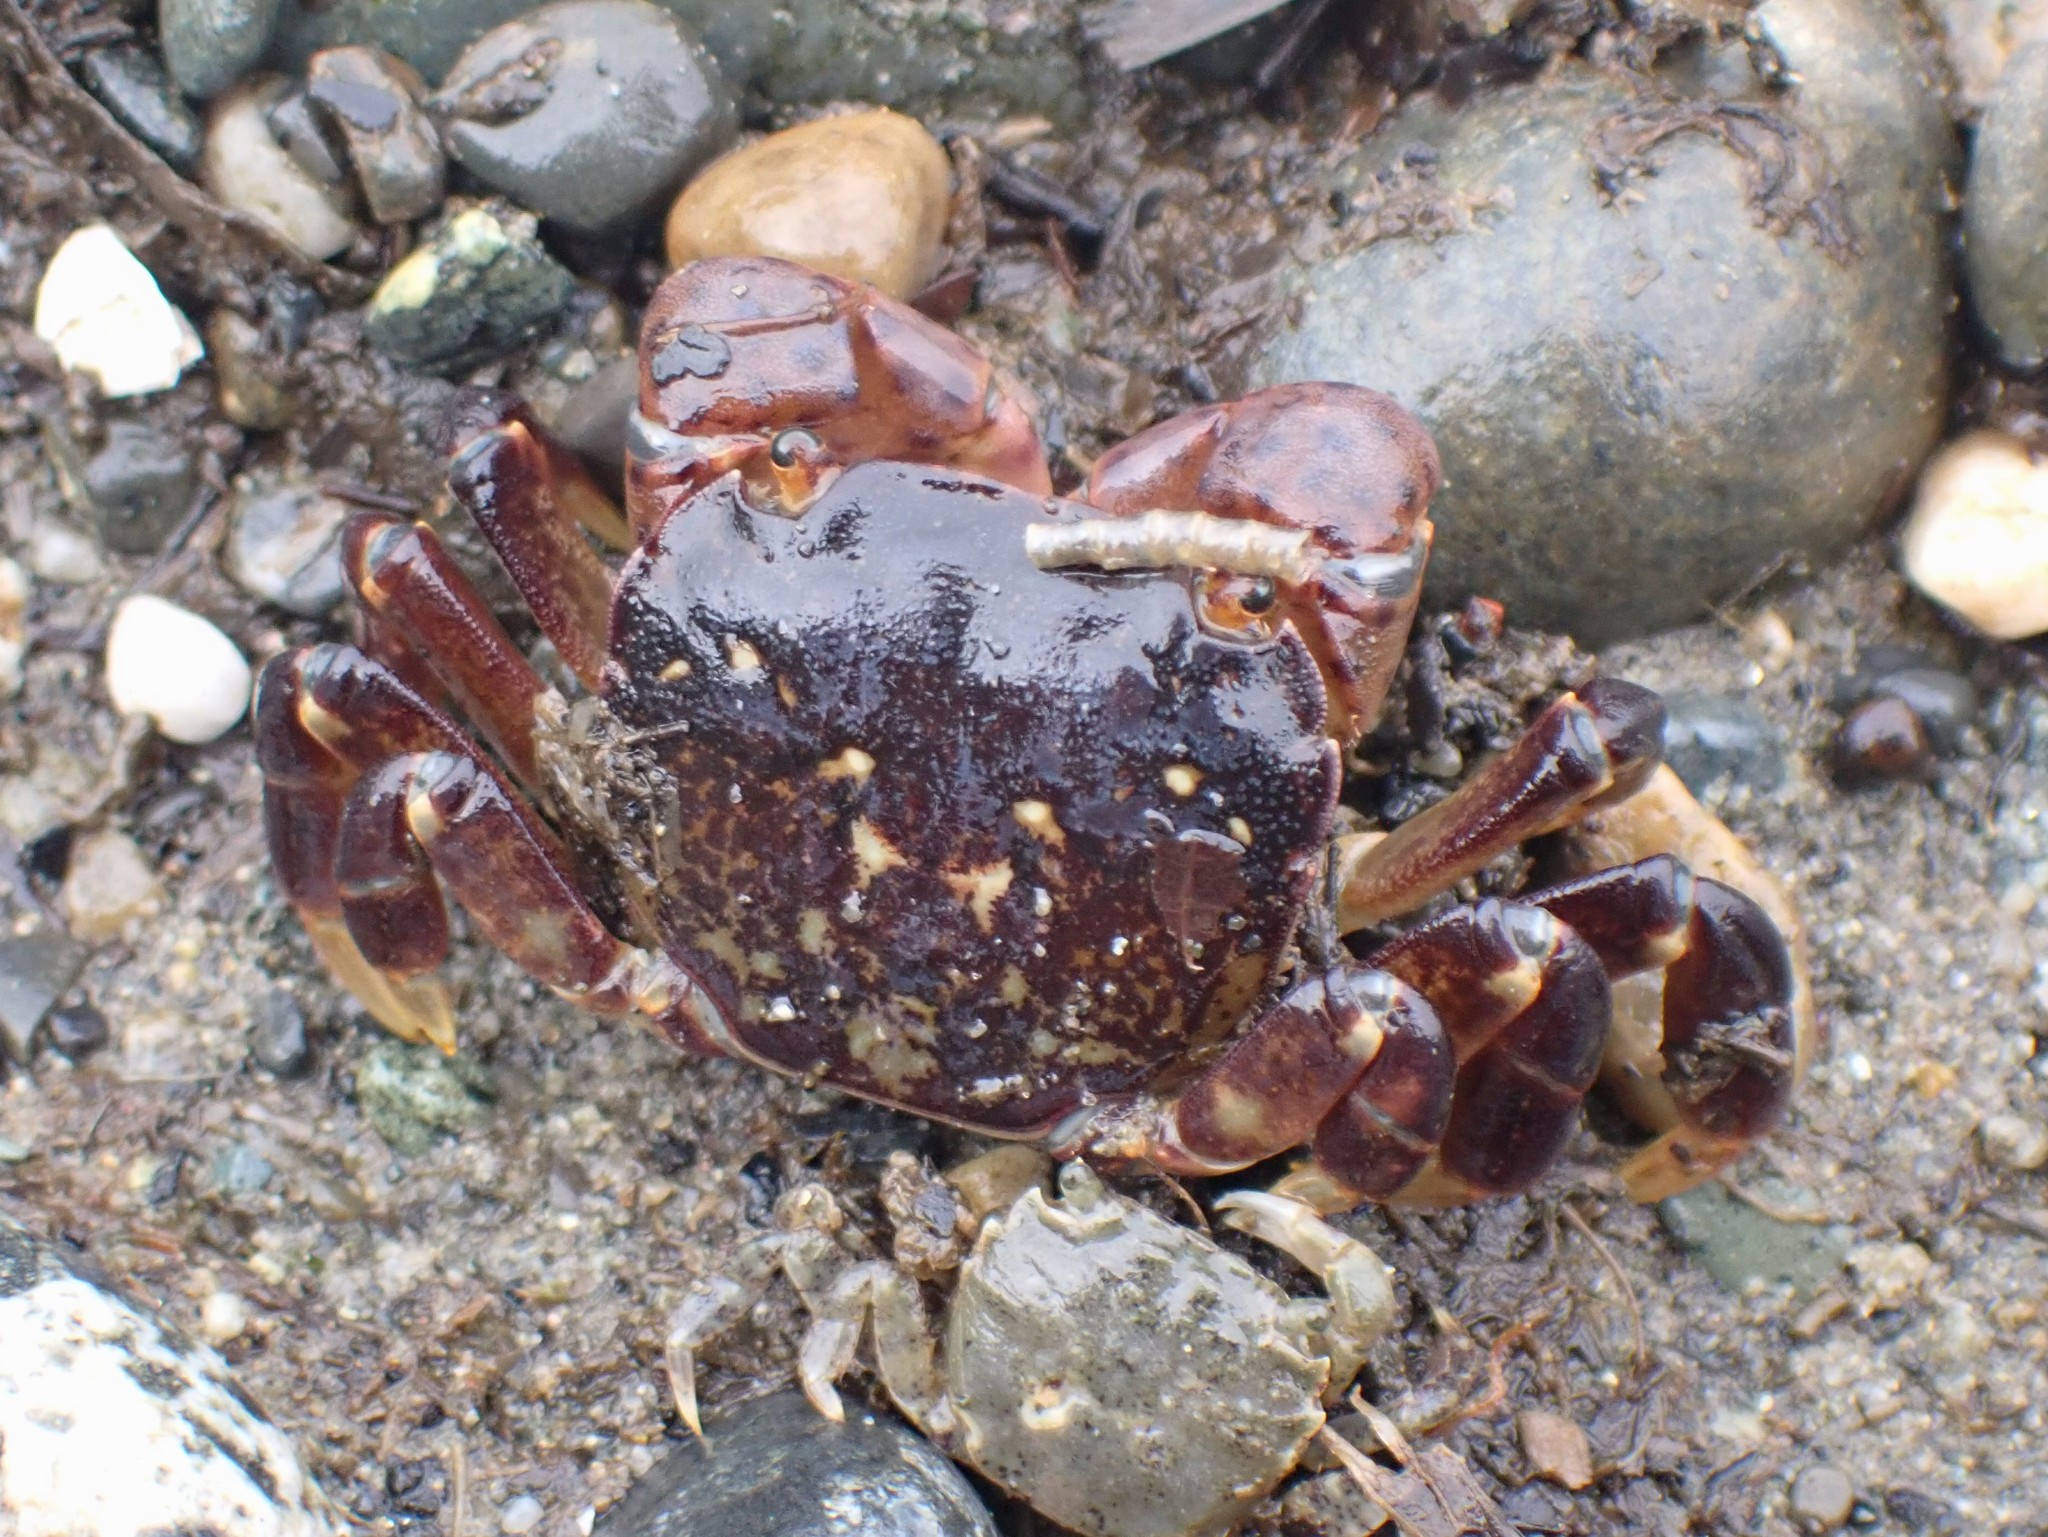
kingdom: Animalia
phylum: Arthropoda
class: Malacostraca
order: Decapoda
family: Varunidae
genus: Hemigrapsus
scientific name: Hemigrapsus nudus
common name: Purple shore crab
